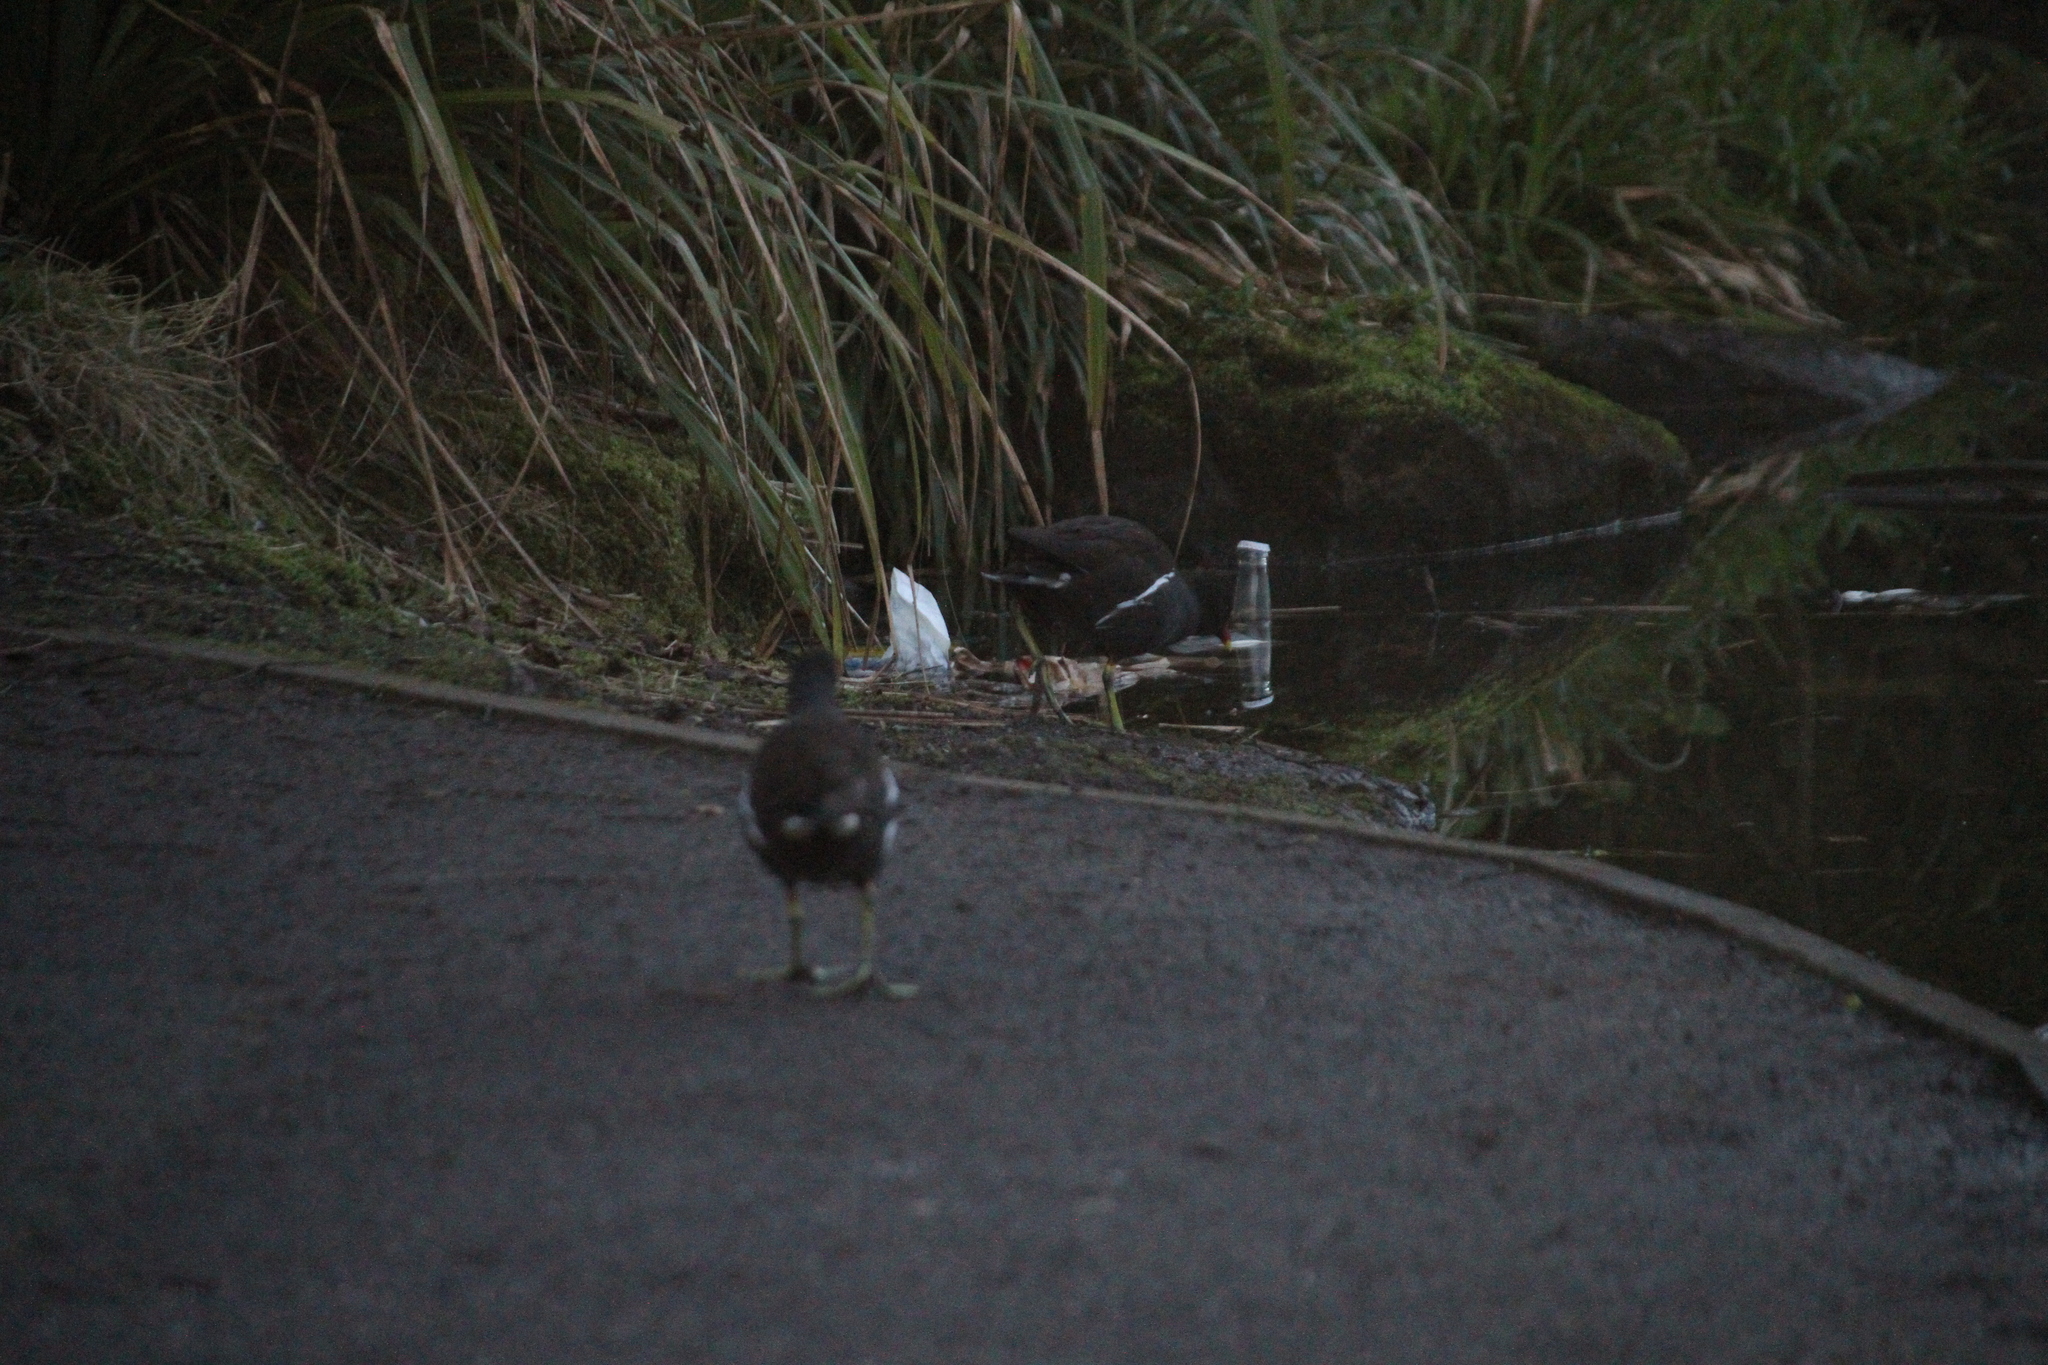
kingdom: Animalia
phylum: Chordata
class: Aves
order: Gruiformes
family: Rallidae
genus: Gallinula
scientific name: Gallinula chloropus
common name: Common moorhen
